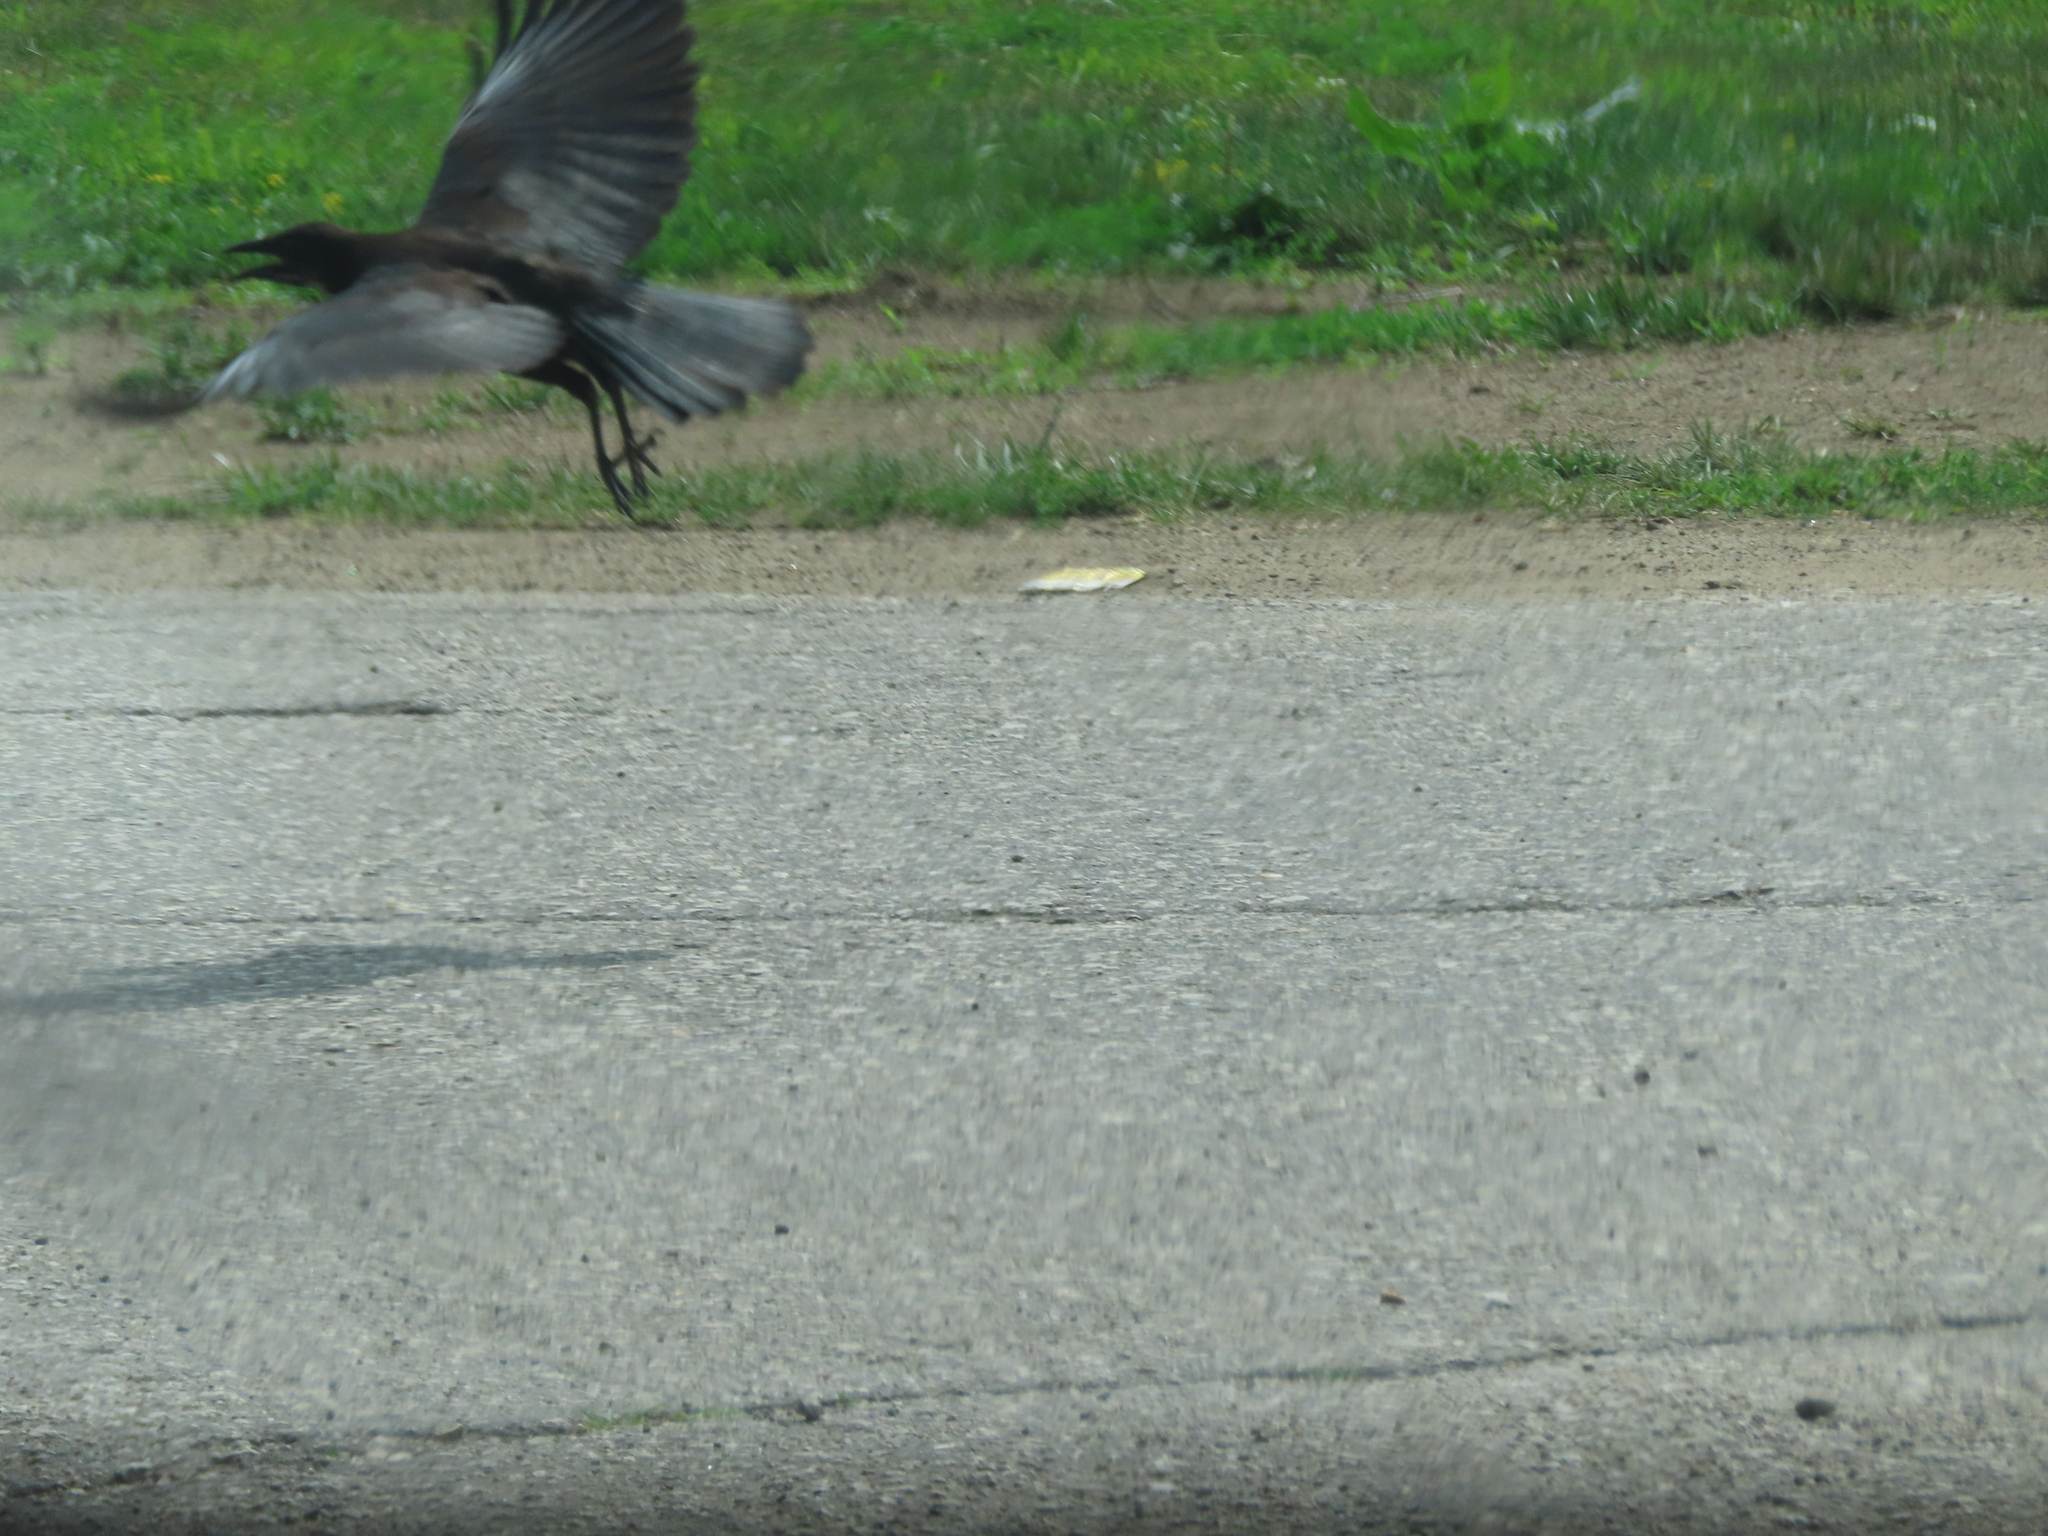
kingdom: Animalia
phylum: Chordata
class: Aves
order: Passeriformes
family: Corvidae
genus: Corvus
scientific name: Corvus brachyrhynchos
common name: American crow
